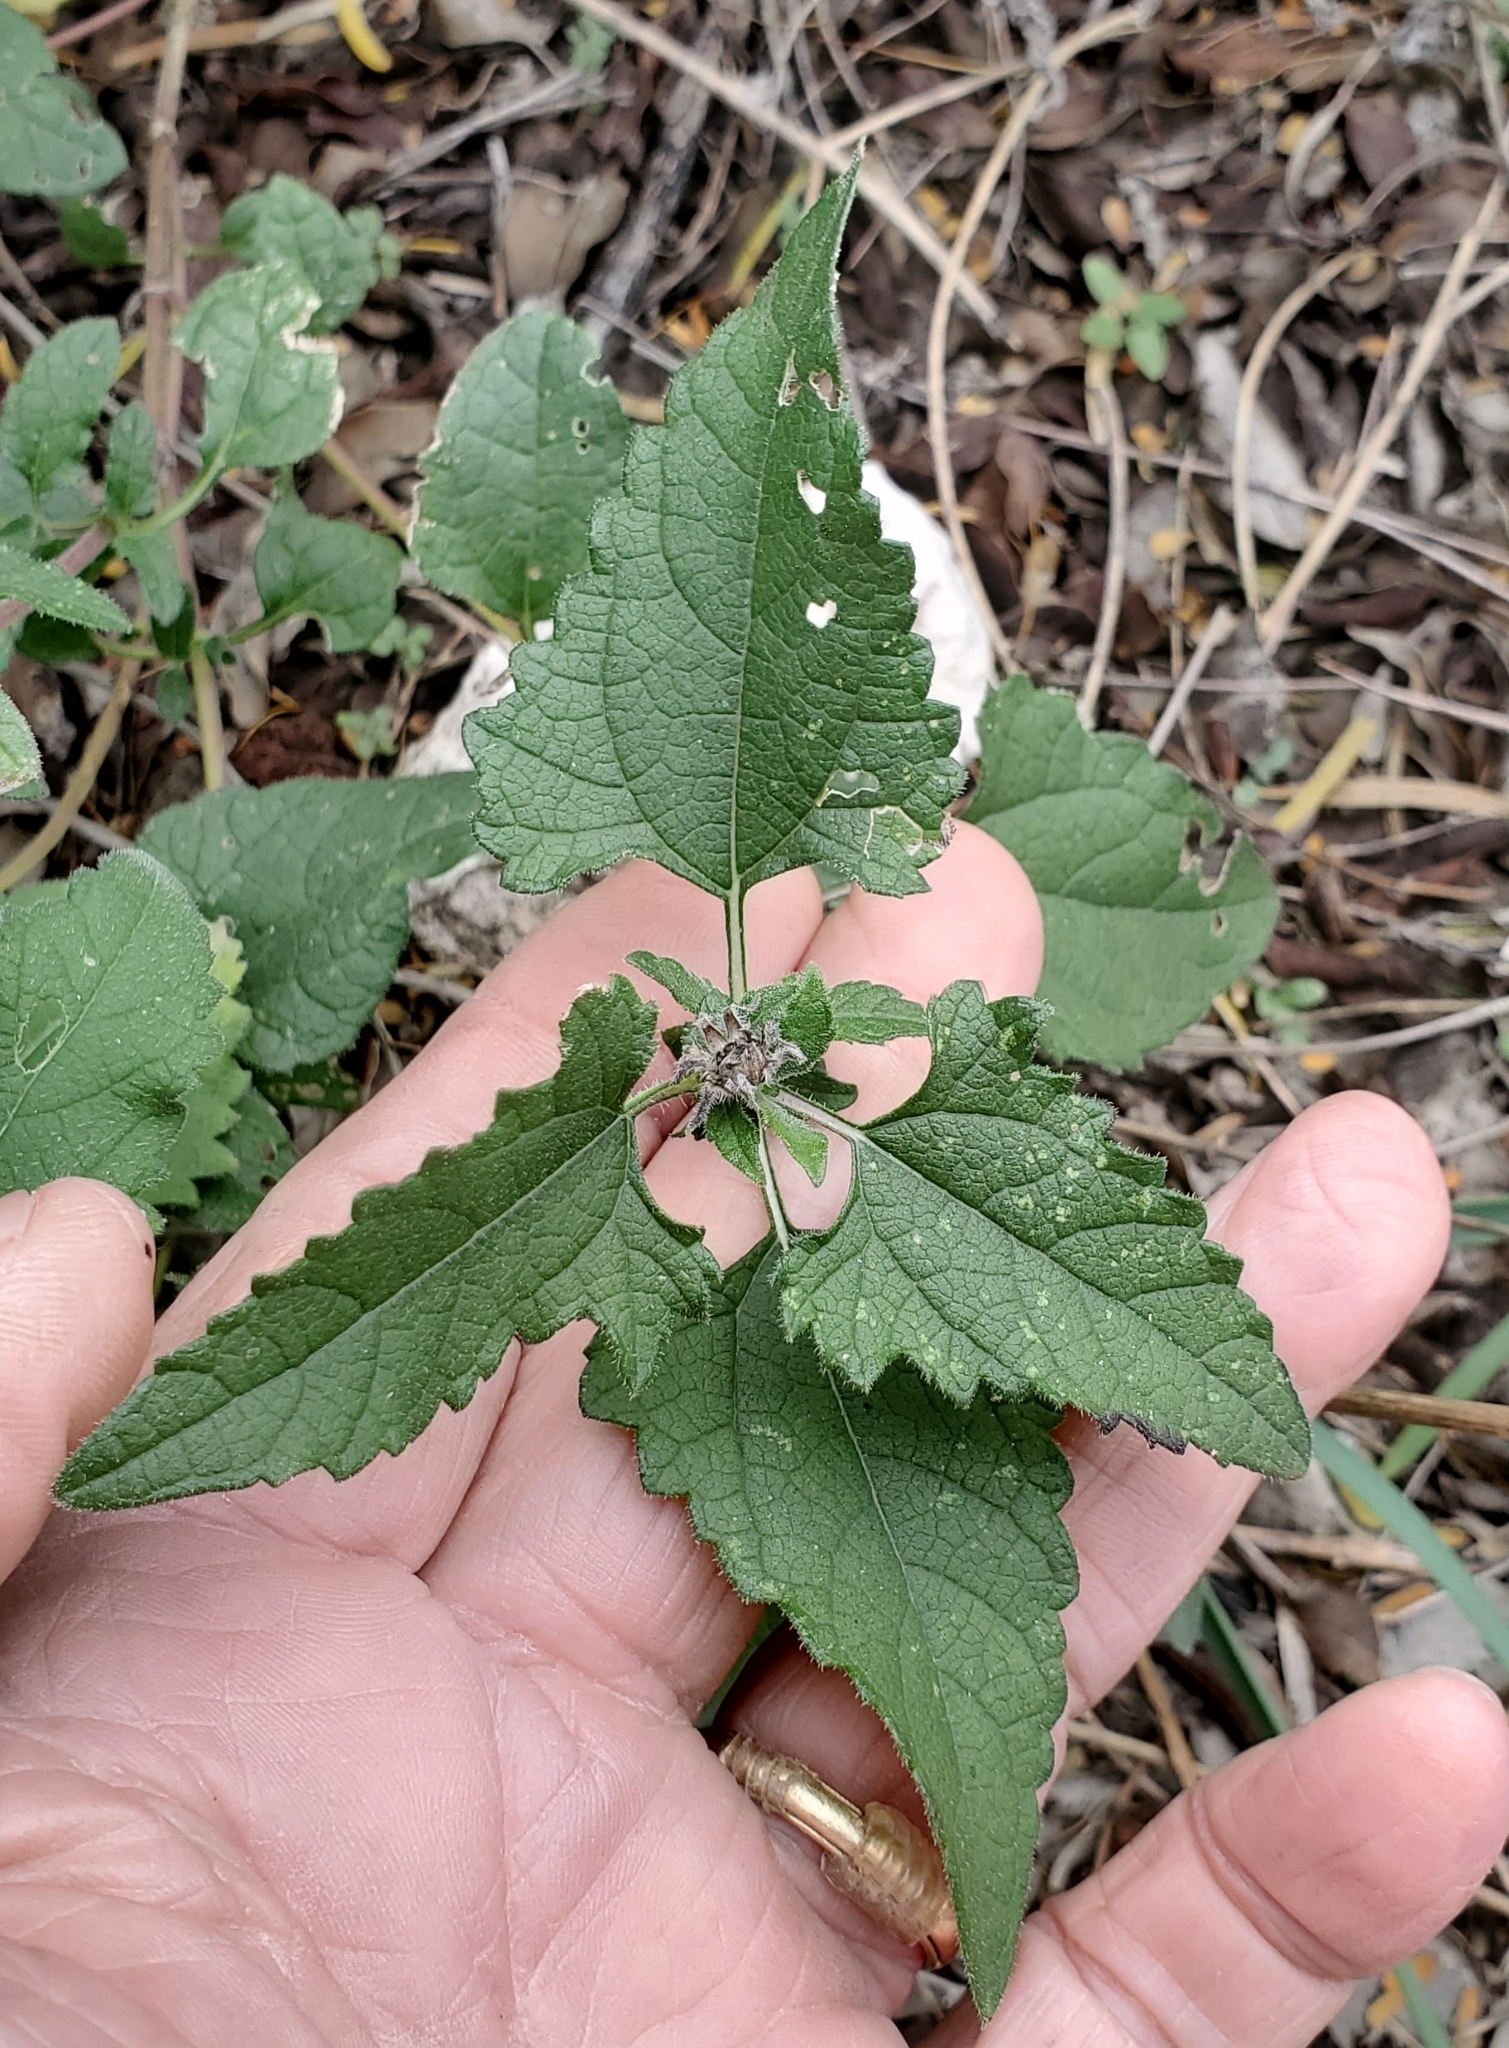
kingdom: Plantae
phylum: Tracheophyta
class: Magnoliopsida
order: Asterales
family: Asteraceae
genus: Simsia
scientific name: Simsia calva
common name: Awnless bush-sunflower
